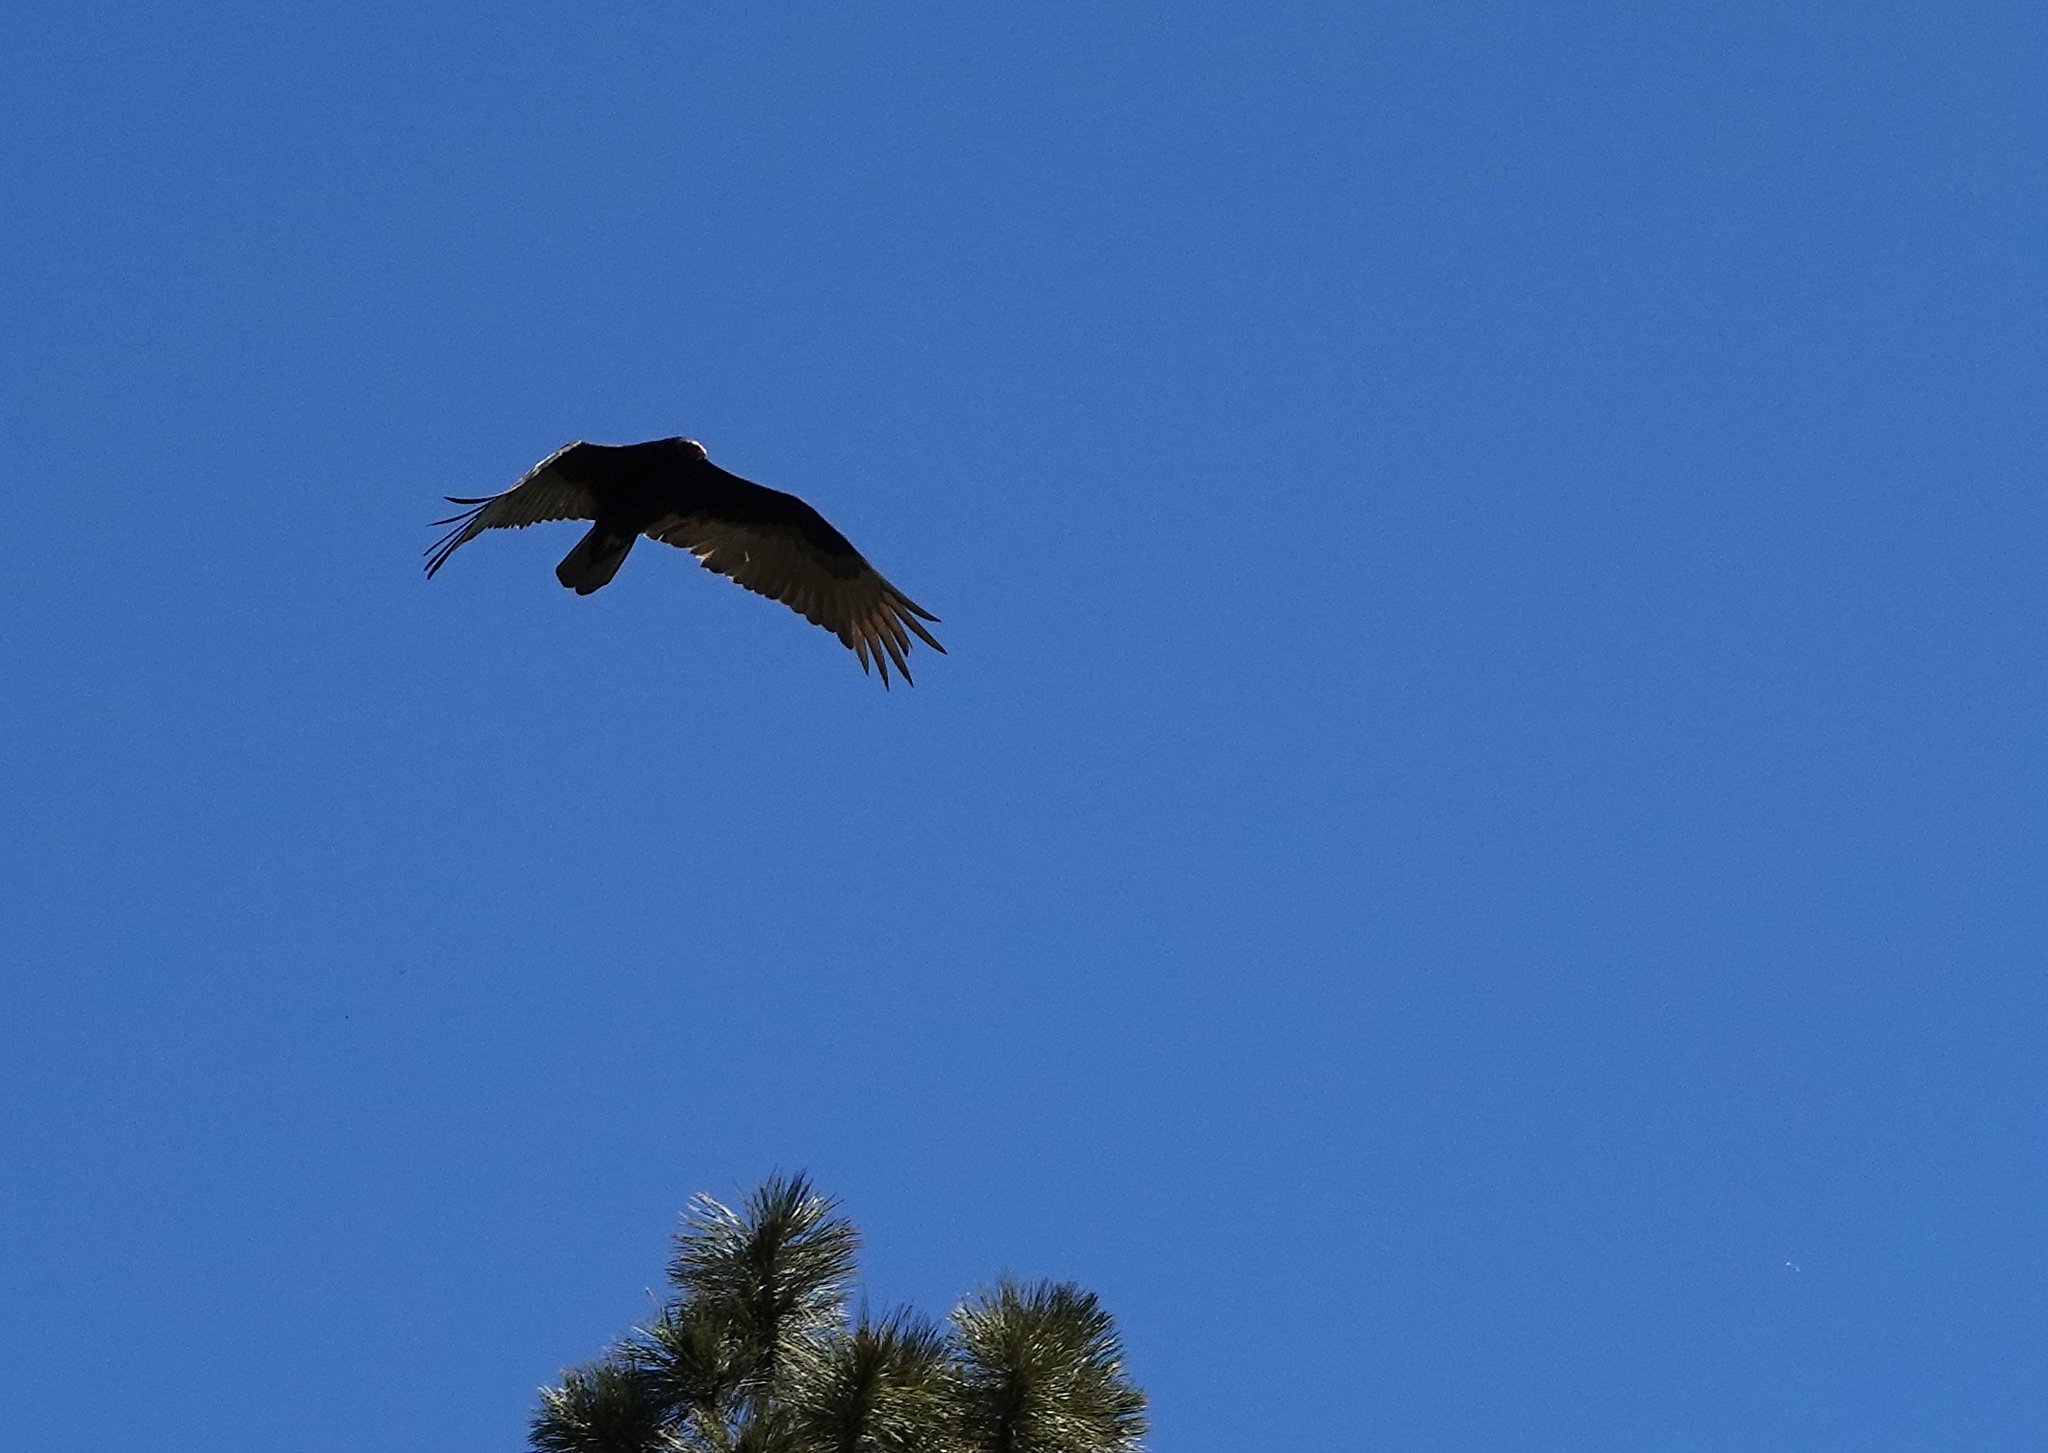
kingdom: Animalia
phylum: Chordata
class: Aves
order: Accipitriformes
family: Cathartidae
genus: Cathartes
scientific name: Cathartes aura
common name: Turkey vulture
